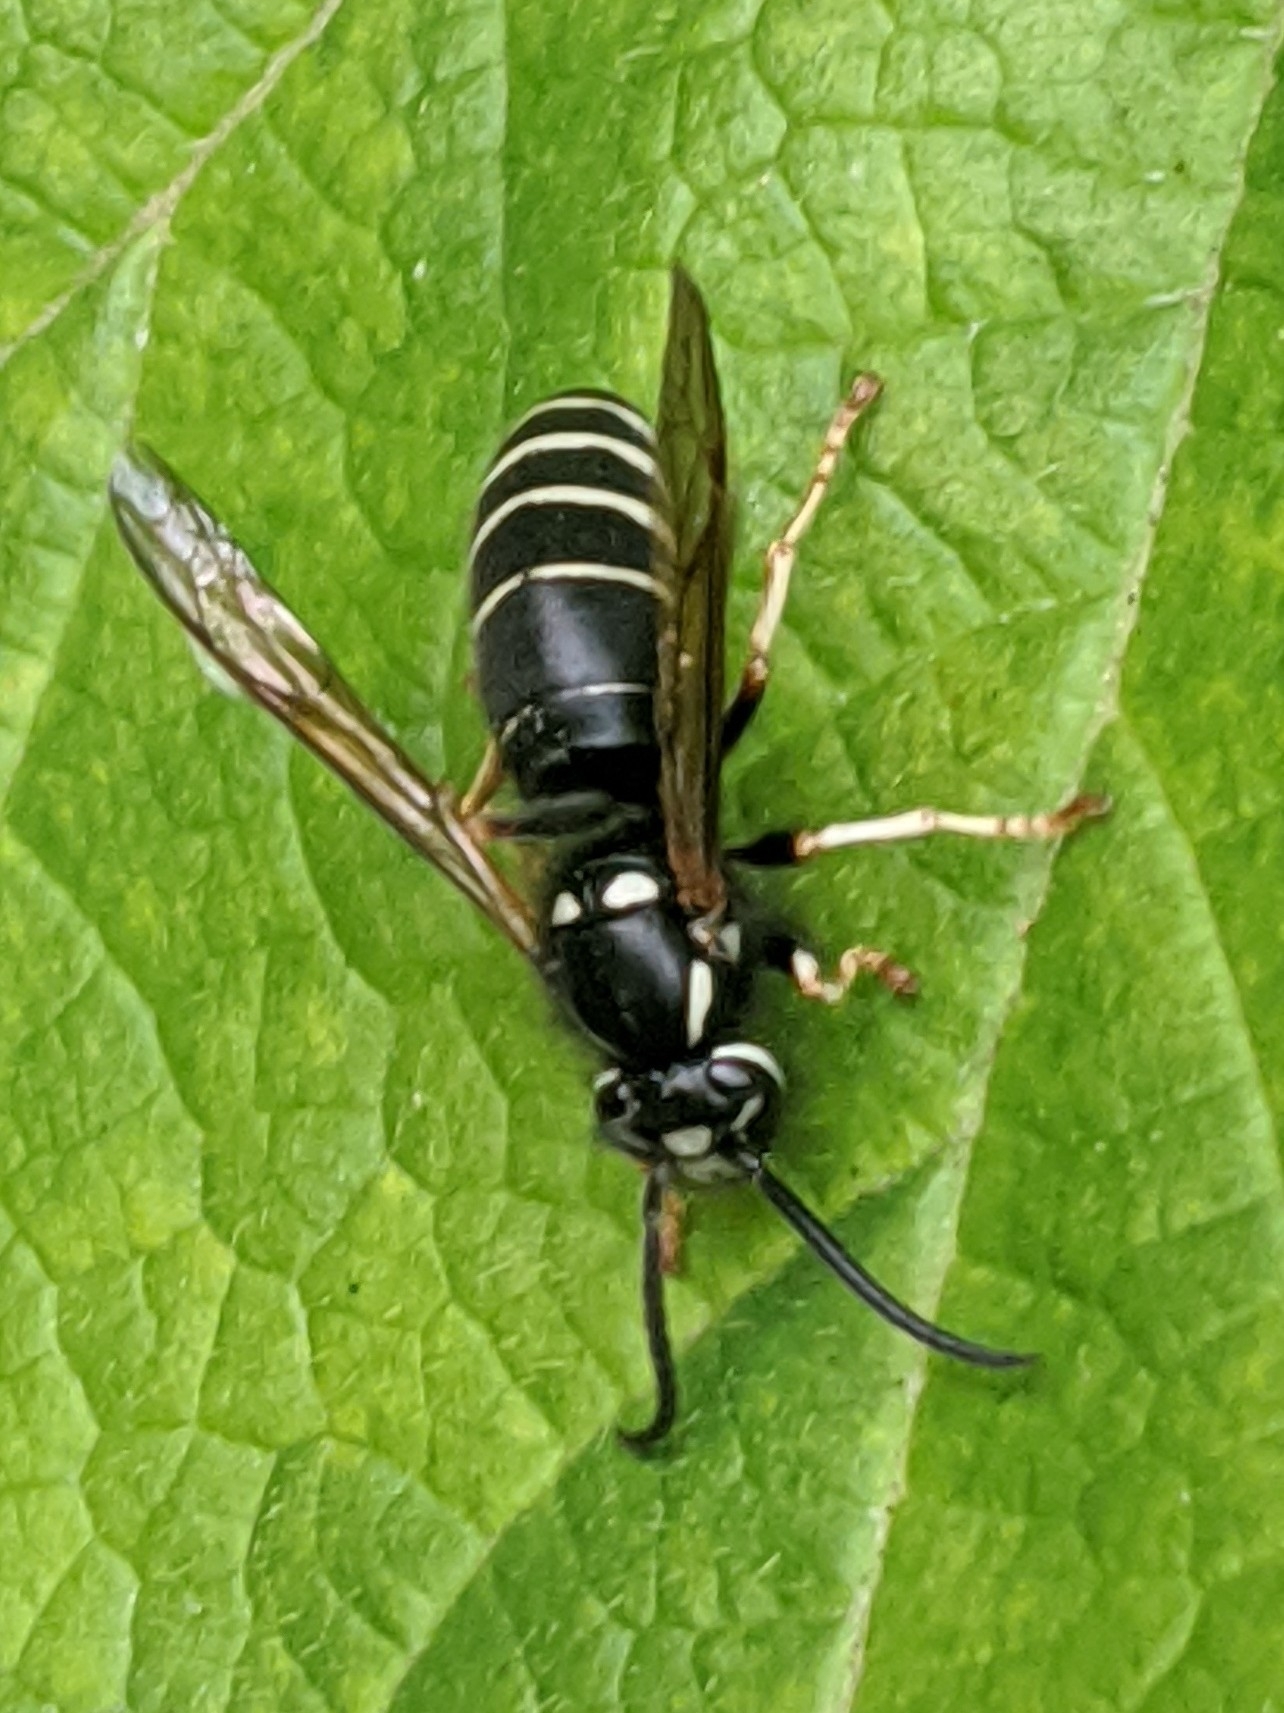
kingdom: Animalia
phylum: Arthropoda
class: Insecta
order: Hymenoptera
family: Vespidae
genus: Dolichovespula
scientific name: Dolichovespula adulterina
